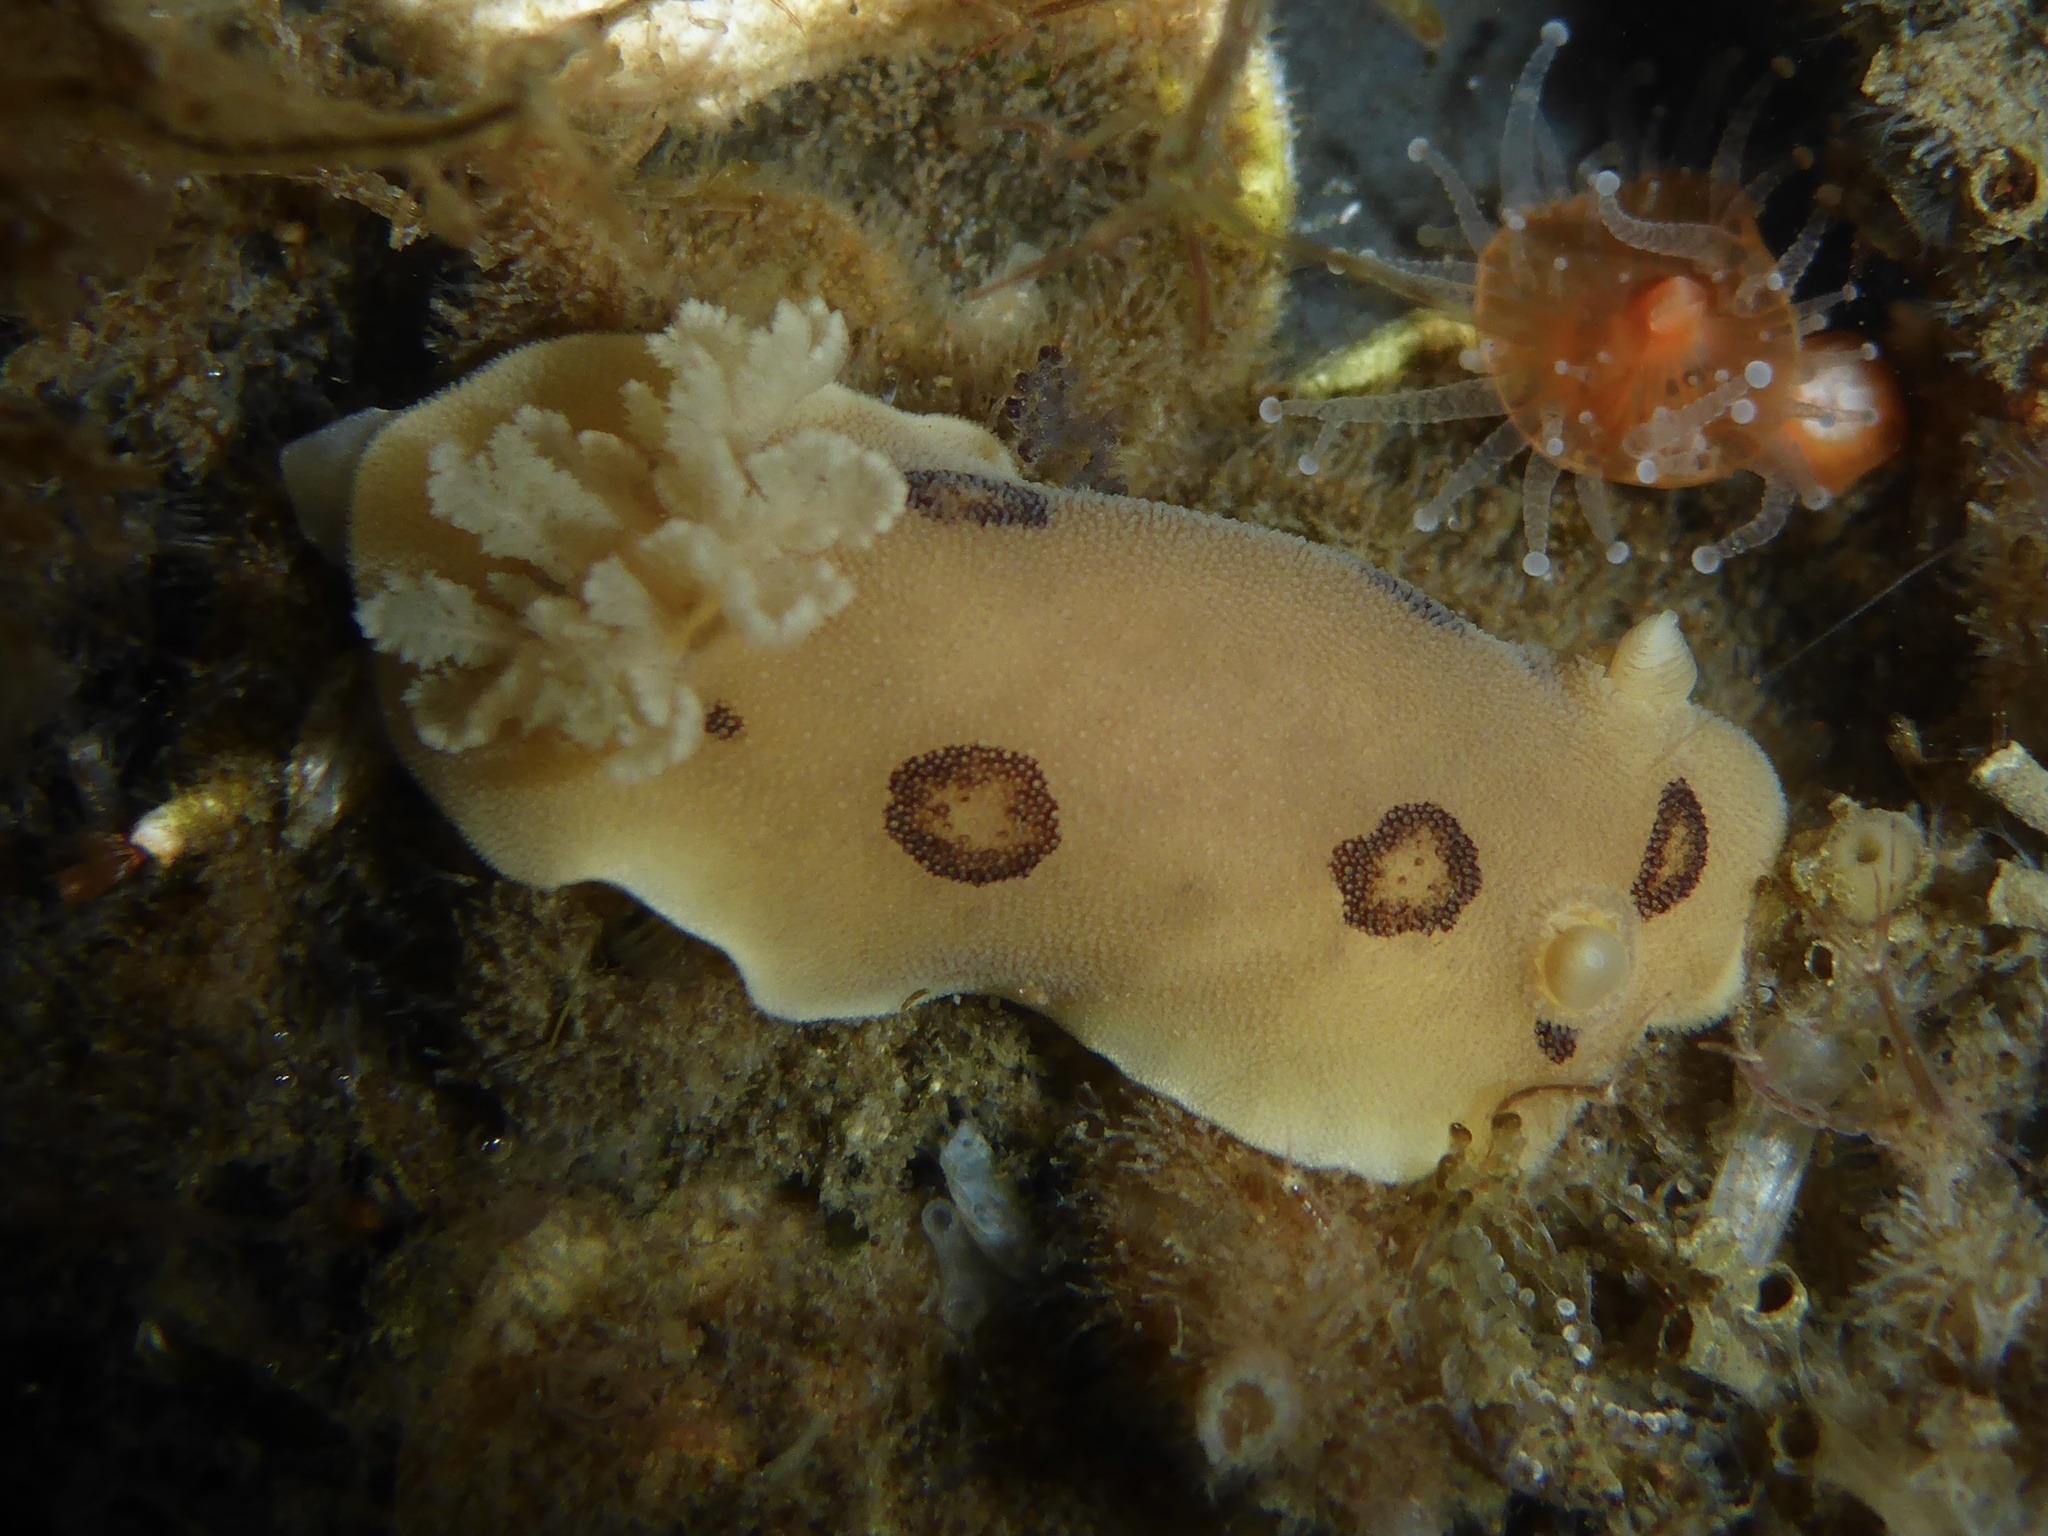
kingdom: Animalia
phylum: Mollusca
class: Gastropoda
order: Nudibranchia
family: Discodorididae
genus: Diaulula
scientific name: Diaulula sandiegensis
